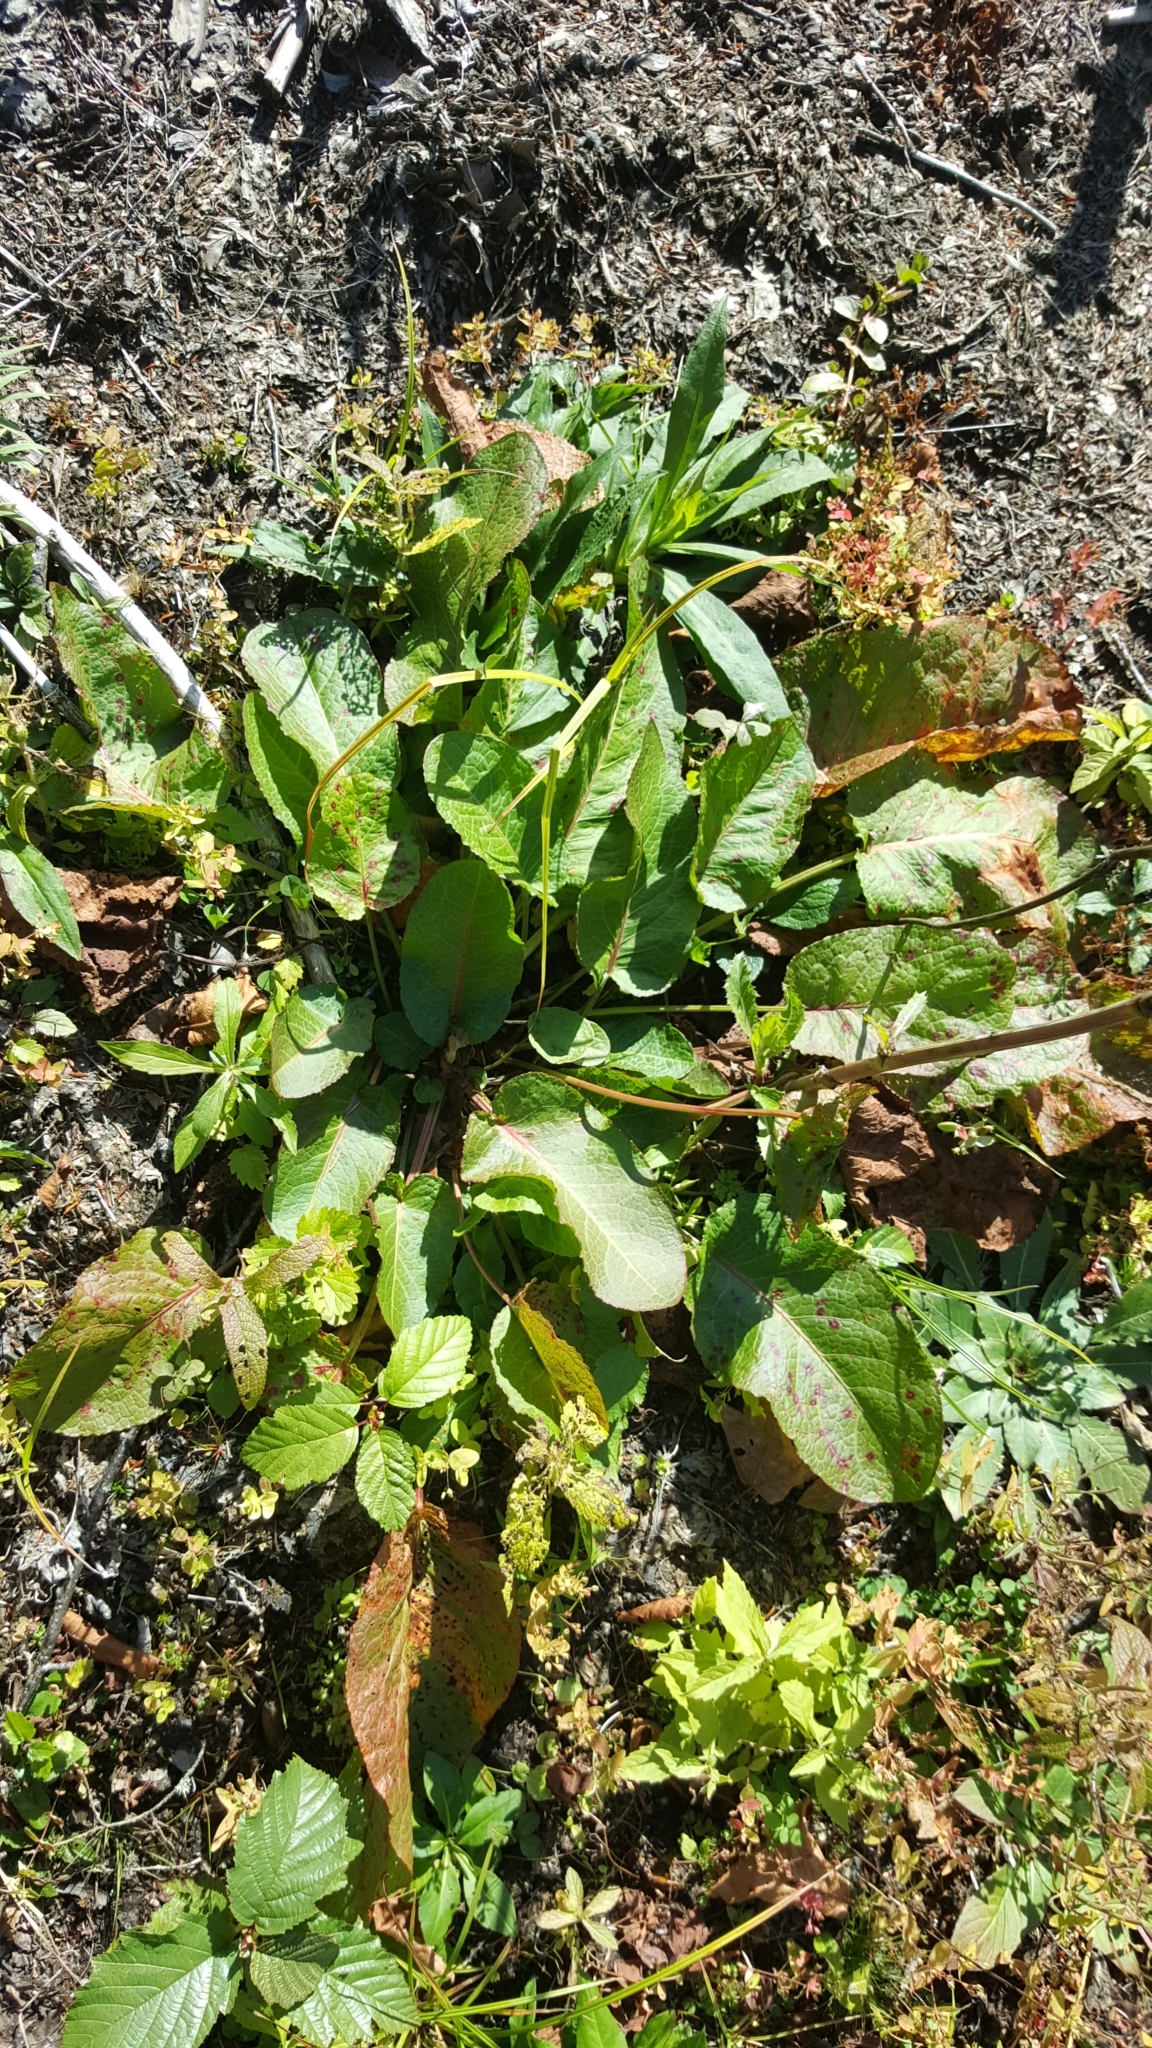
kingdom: Plantae
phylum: Tracheophyta
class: Magnoliopsida
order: Caryophyllales
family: Polygonaceae
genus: Rumex
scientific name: Rumex obtusifolius
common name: Bitter dock
